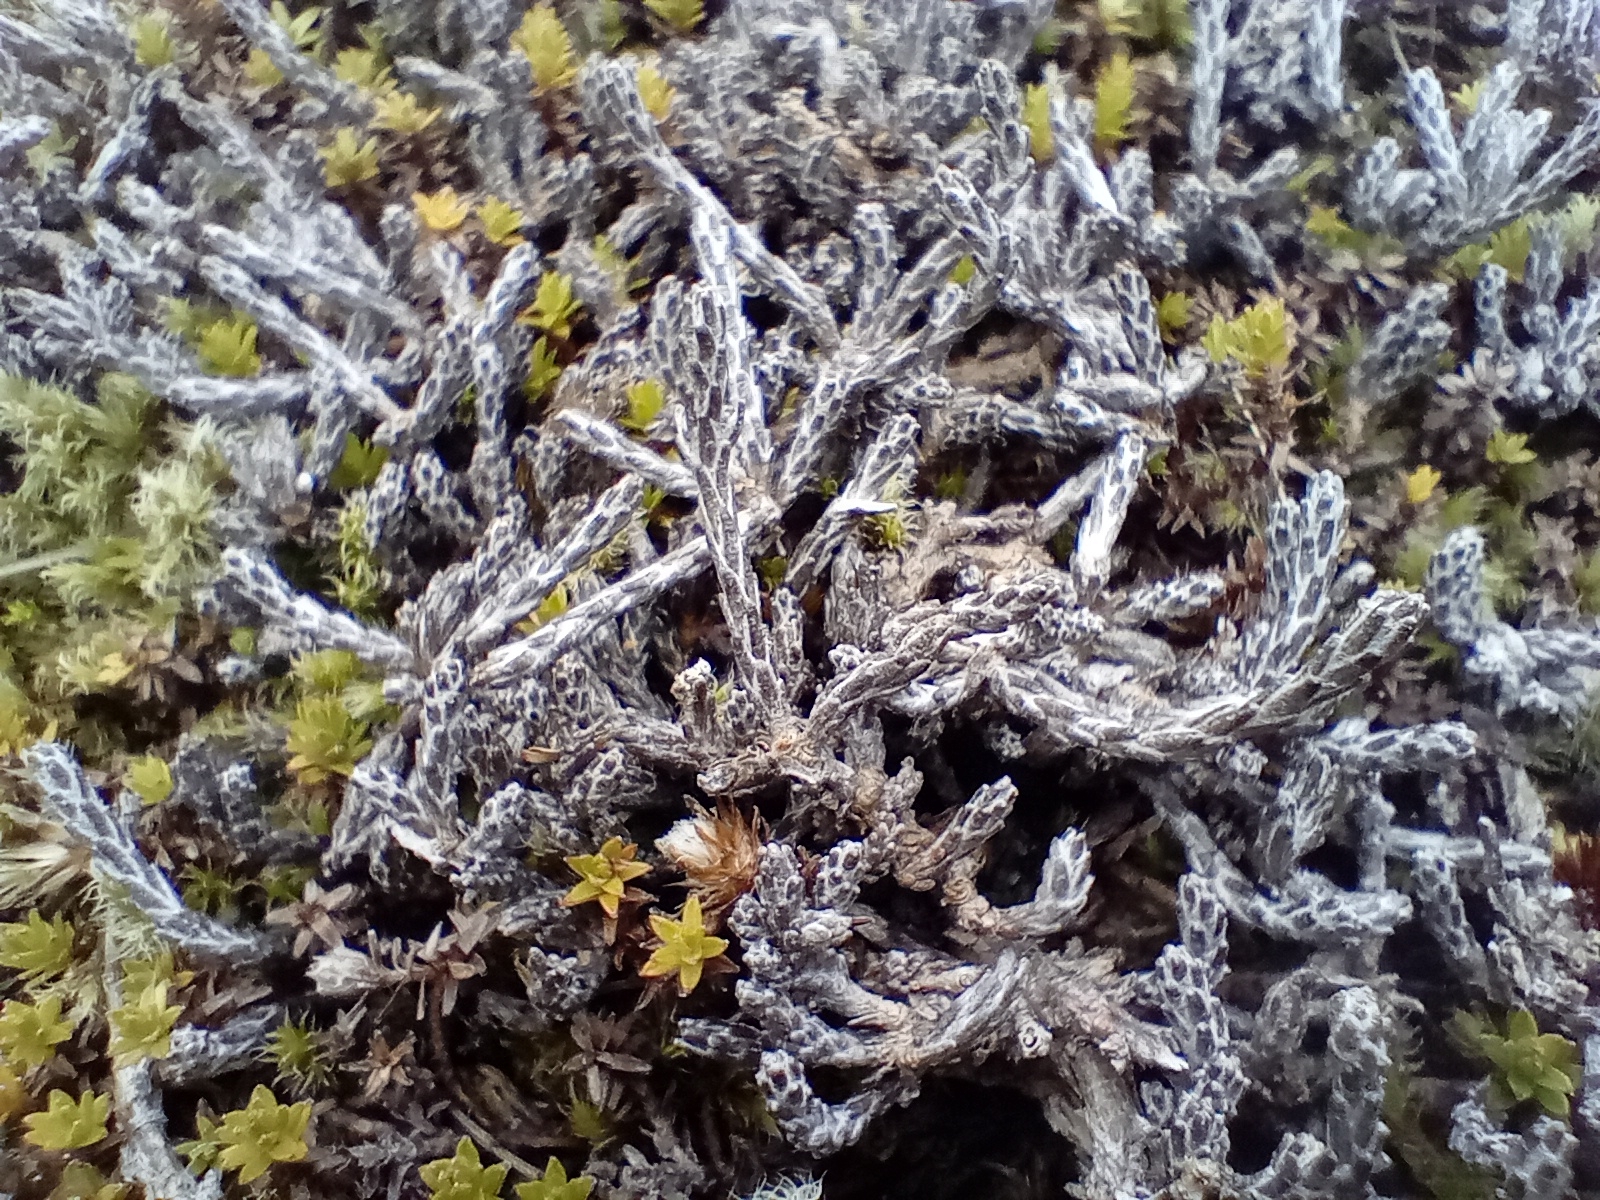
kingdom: Plantae
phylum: Tracheophyta
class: Magnoliopsida
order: Asterales
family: Asteraceae
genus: Ozothamnus
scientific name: Ozothamnus depressus
